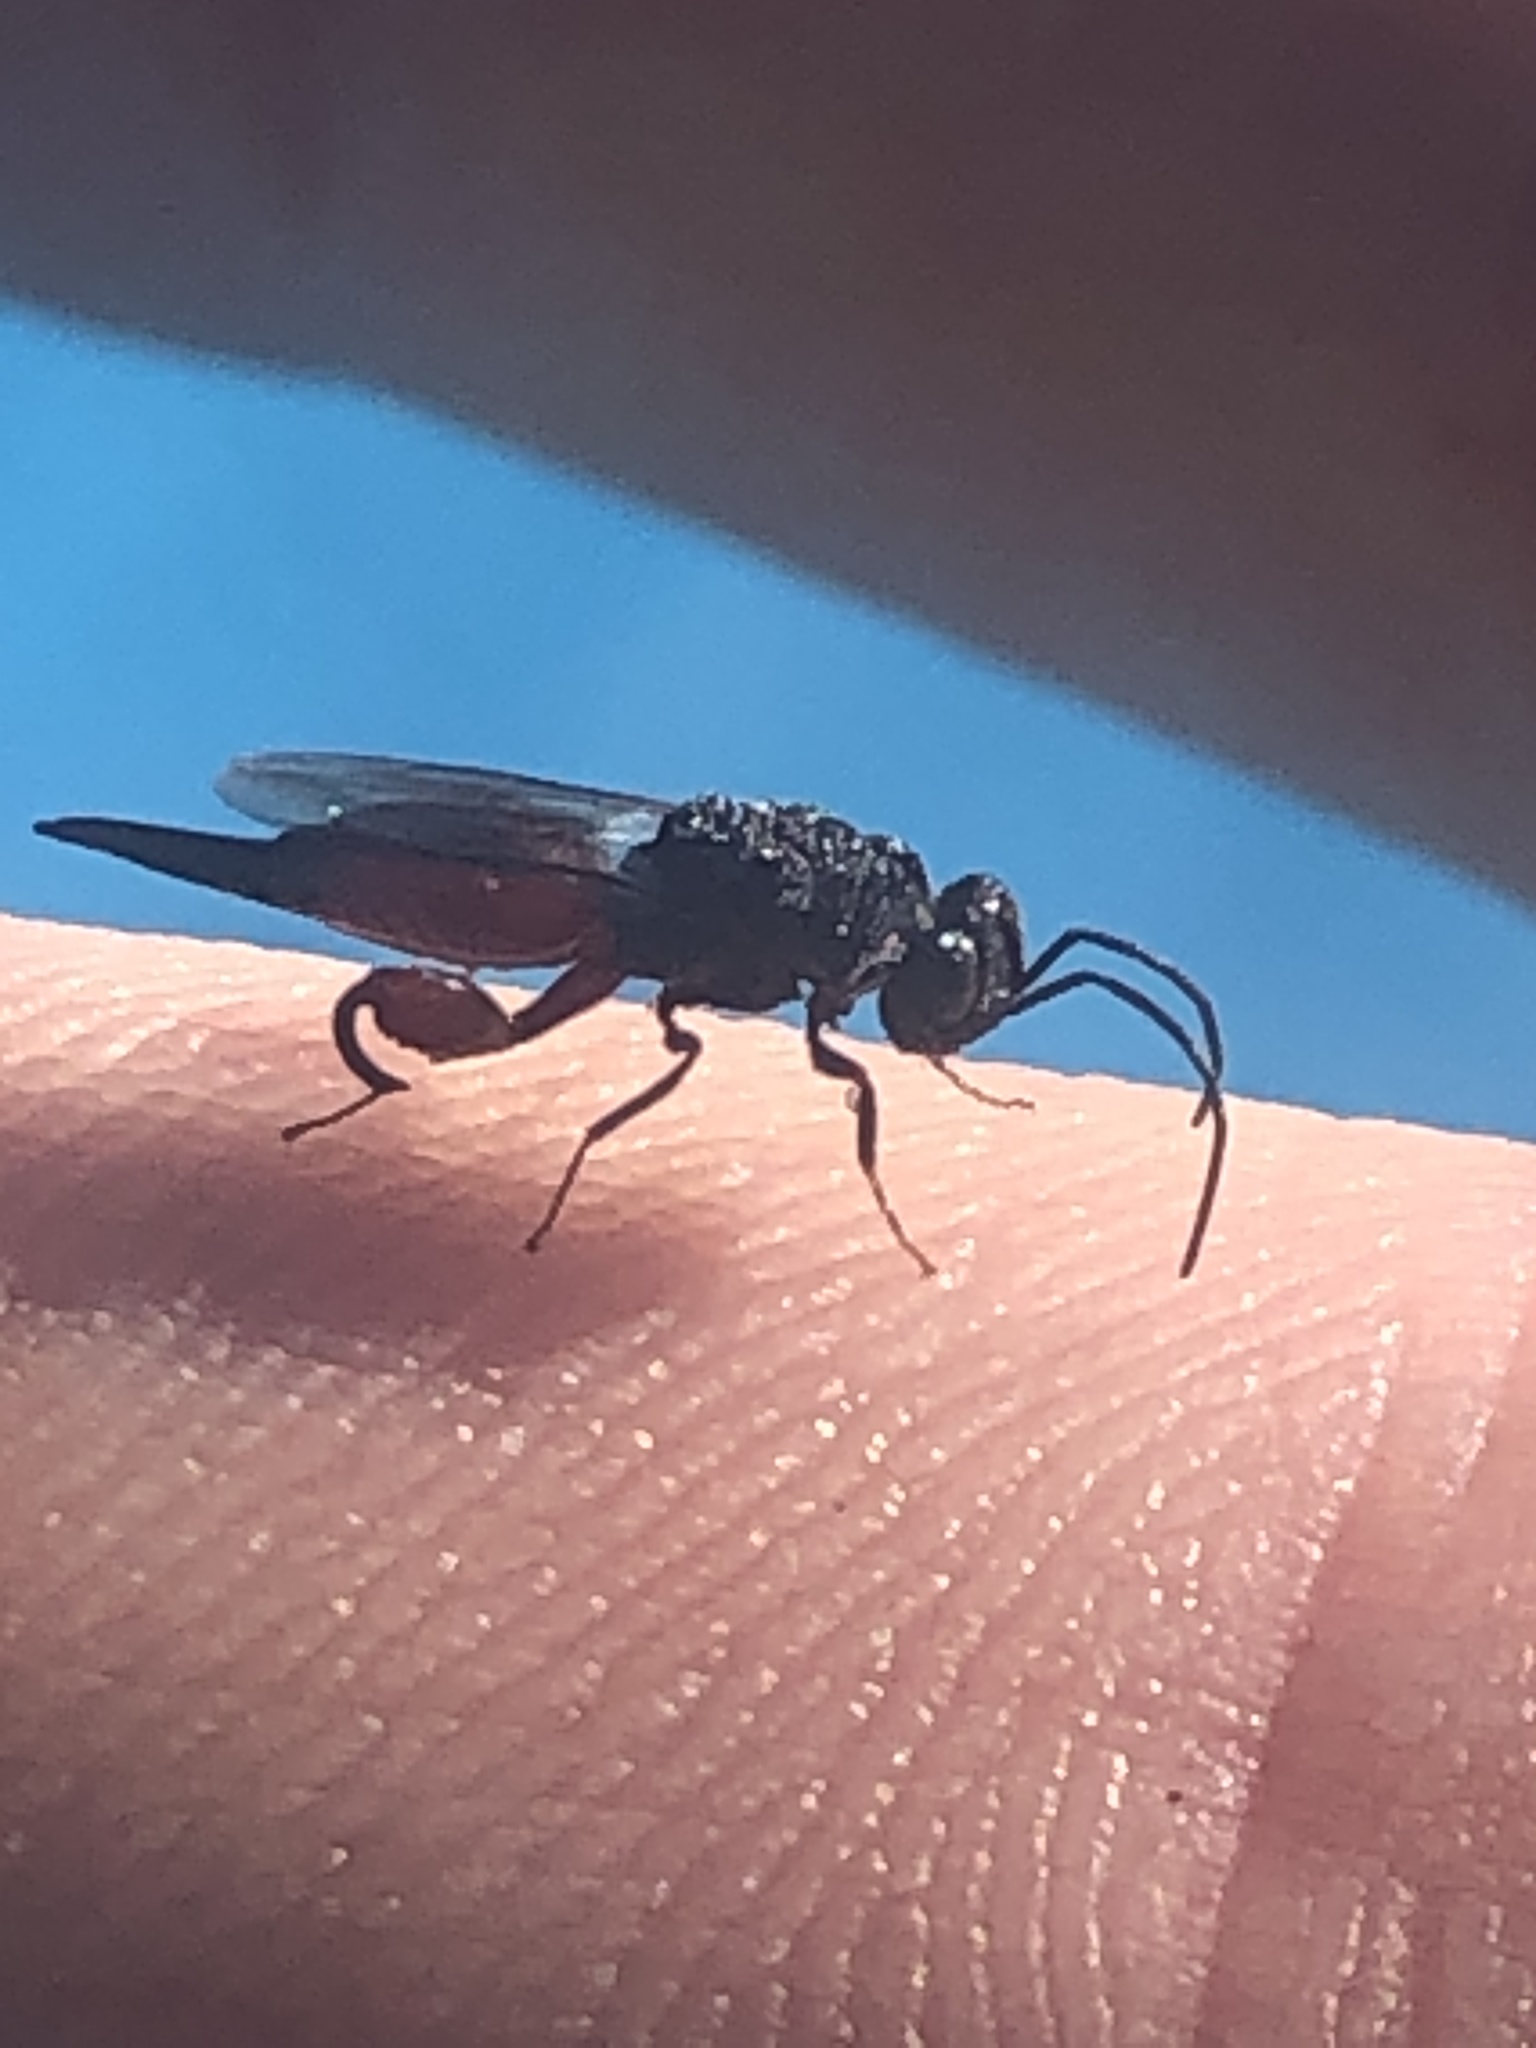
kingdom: Animalia
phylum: Arthropoda
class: Insecta
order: Hymenoptera
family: Chalcididae
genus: Phasgonophora
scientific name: Phasgonophora sulcata
